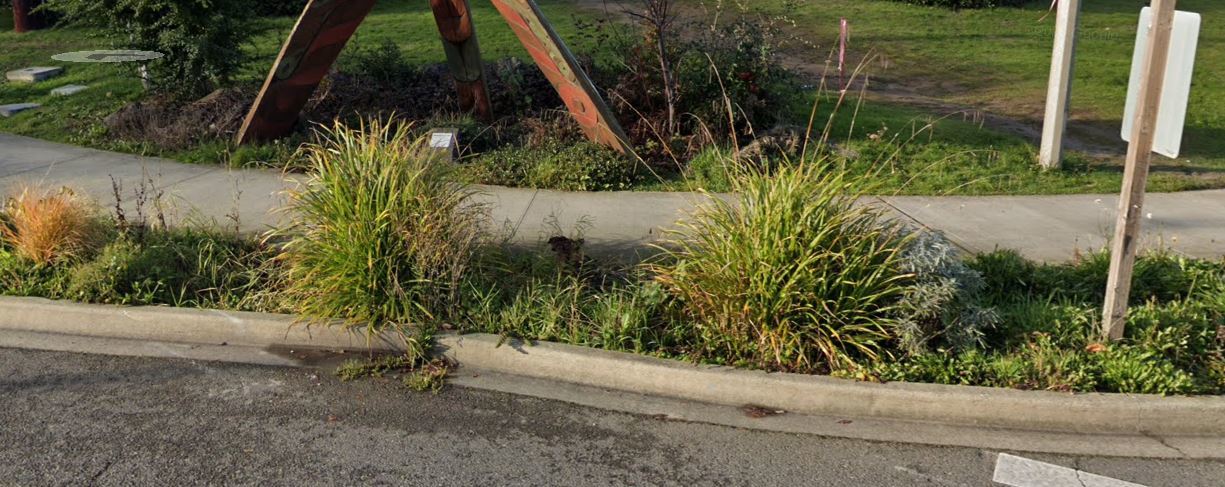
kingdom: Plantae
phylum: Tracheophyta
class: Liliopsida
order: Poales
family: Cyperaceae
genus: Carex
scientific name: Carex pendula
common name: Pendulous sedge
